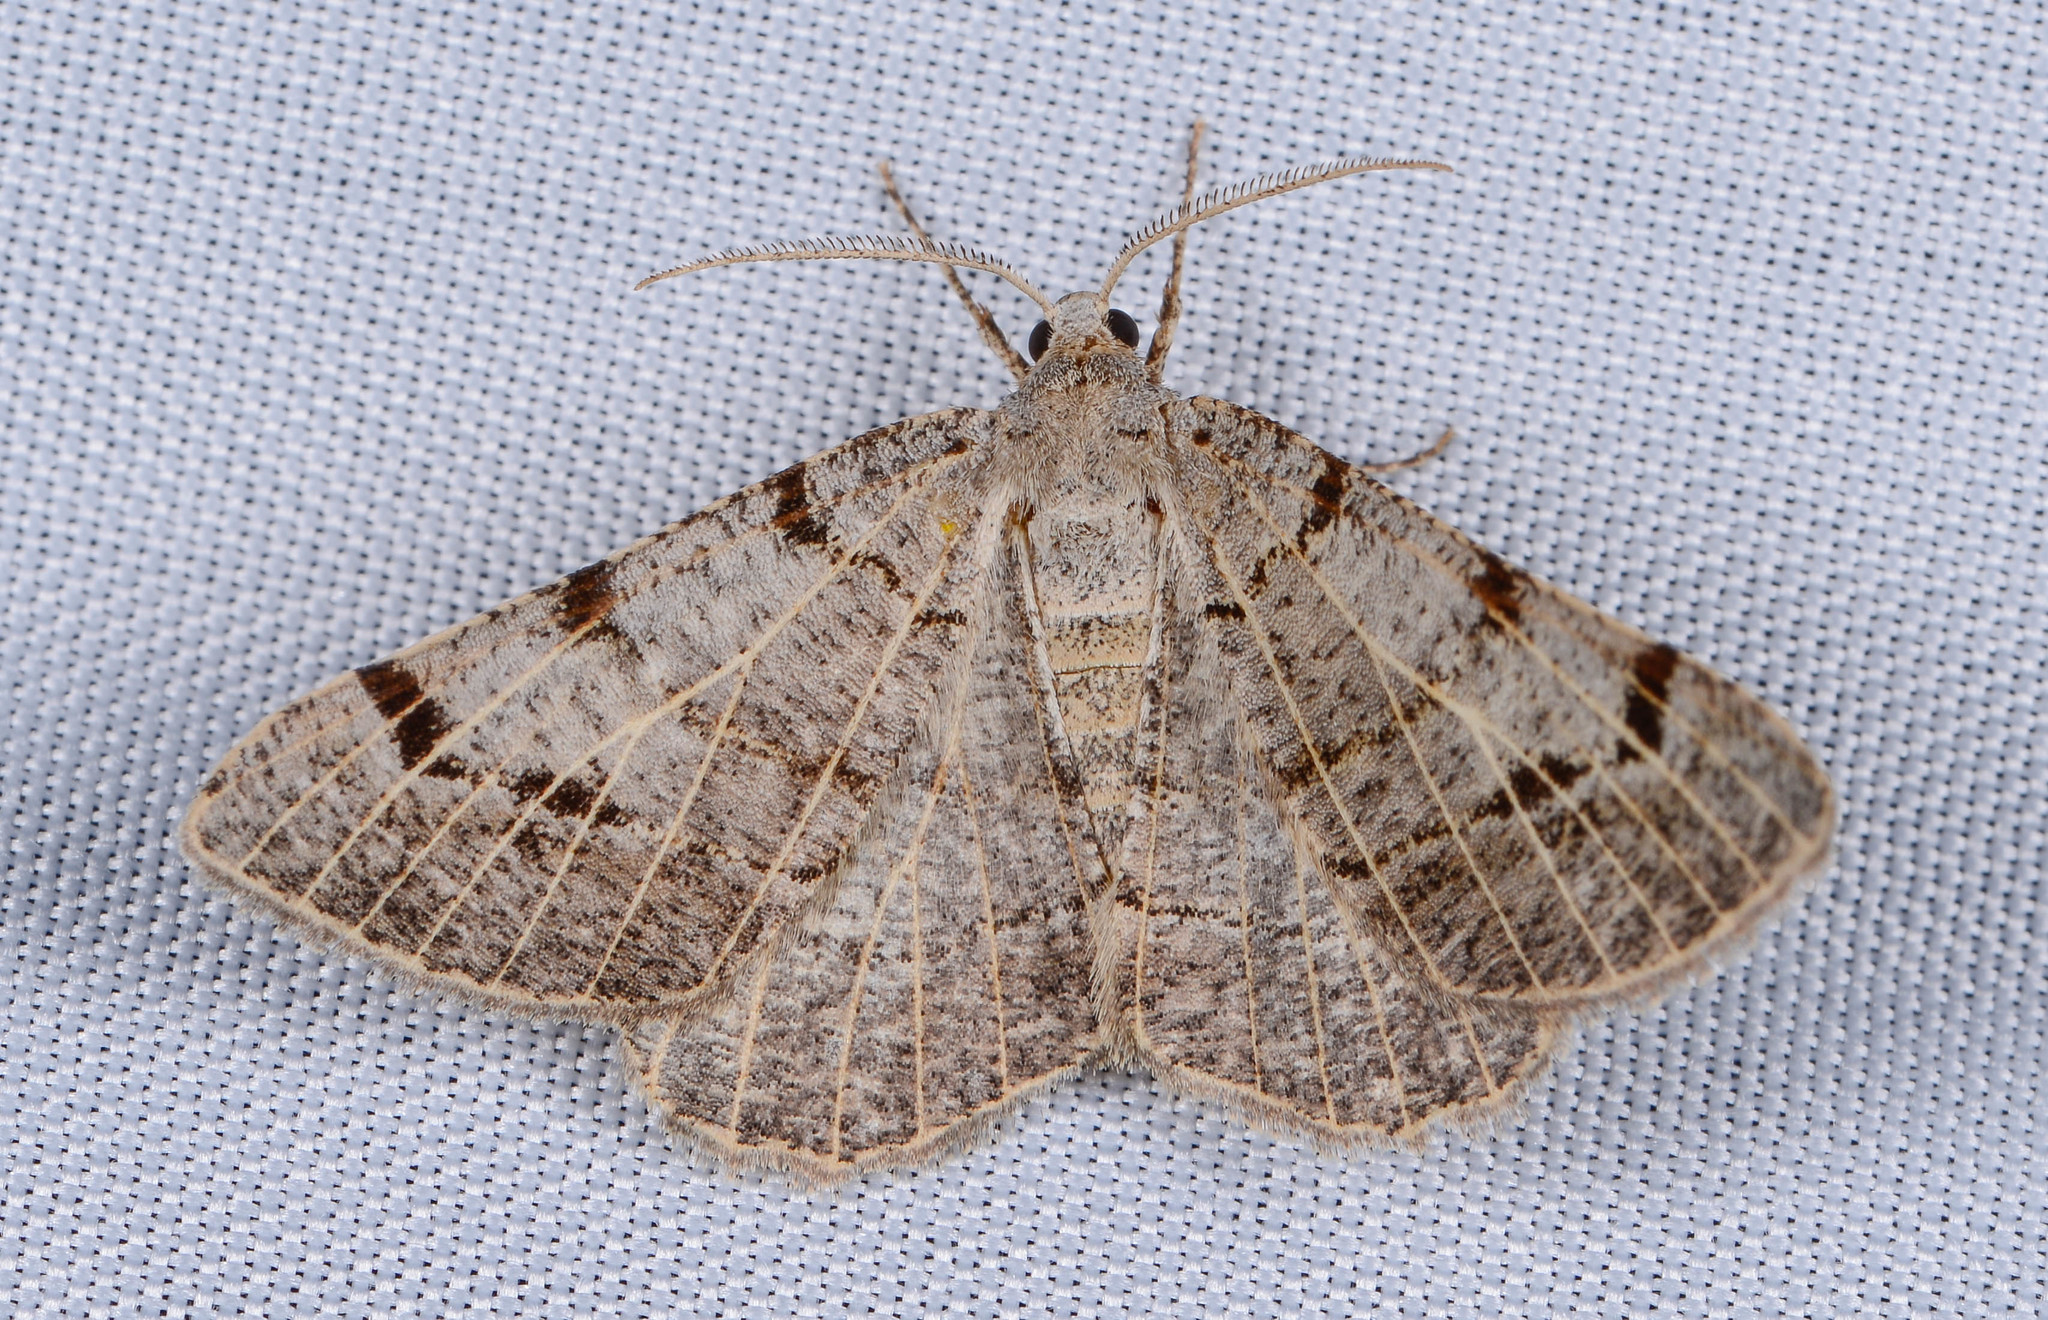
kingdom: Animalia
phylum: Arthropoda
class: Insecta
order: Lepidoptera
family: Geometridae
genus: Isturgia
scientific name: Isturgia dislocaria
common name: Pale-viened enconista
